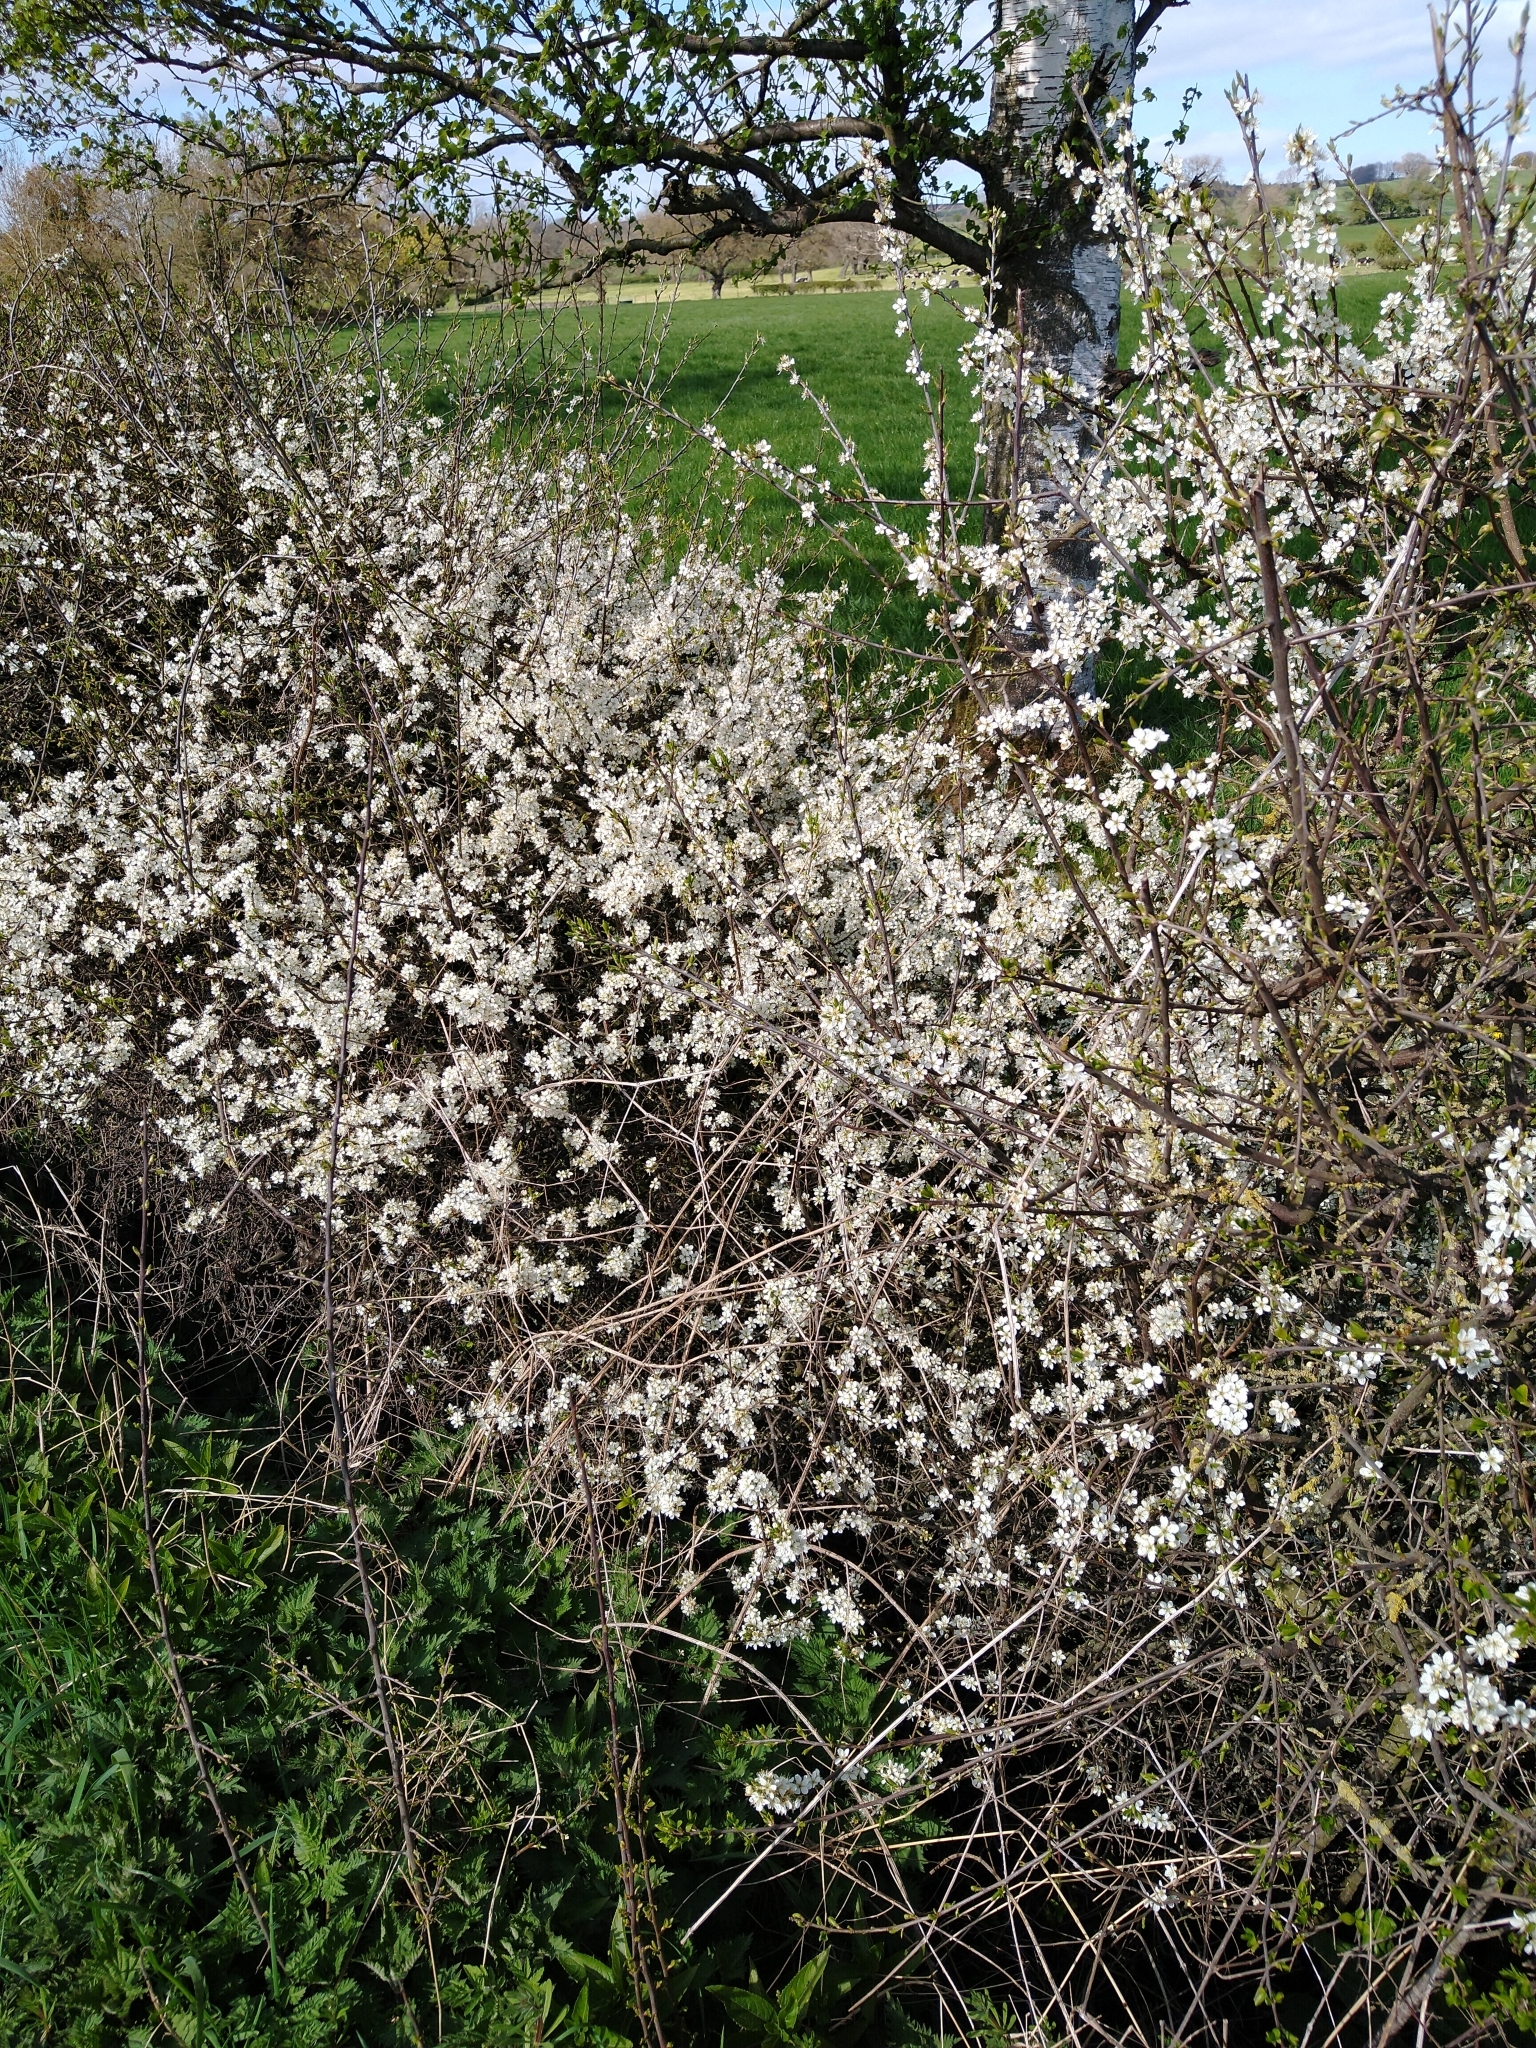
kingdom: Plantae
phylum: Tracheophyta
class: Magnoliopsida
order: Rosales
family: Rosaceae
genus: Prunus
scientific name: Prunus spinosa
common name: Blackthorn
